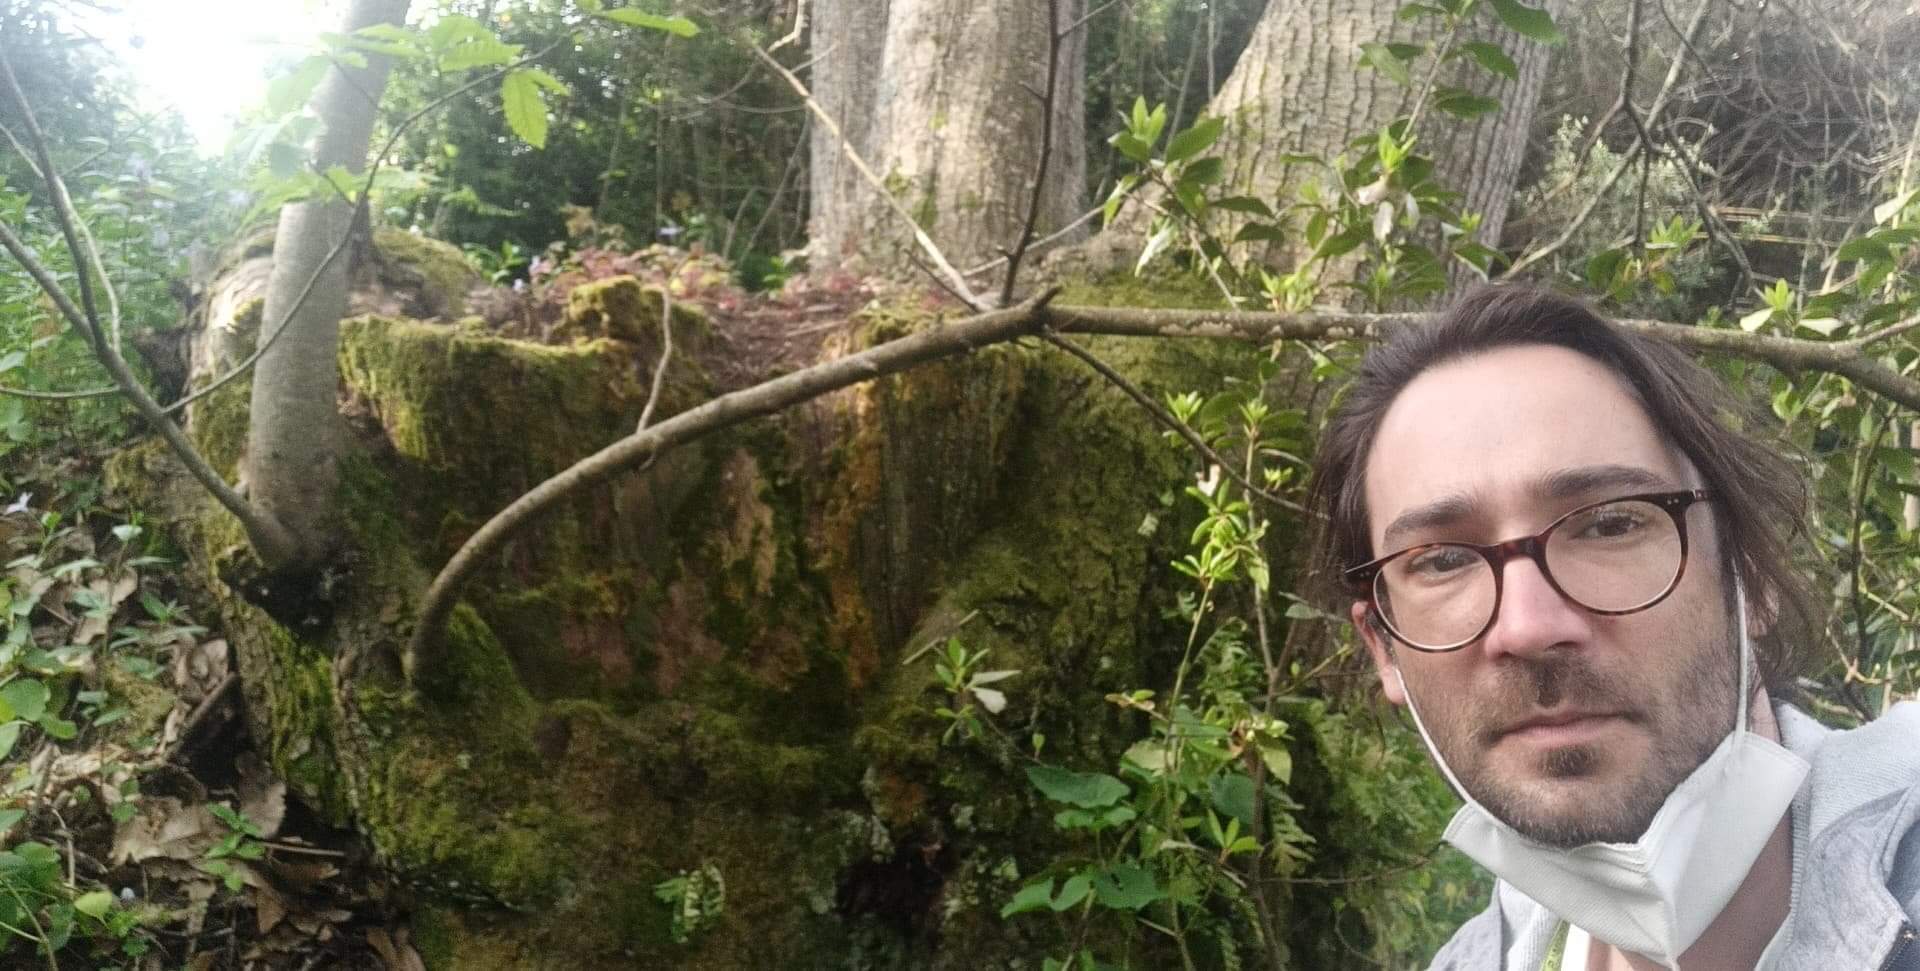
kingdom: Plantae
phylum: Tracheophyta
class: Magnoliopsida
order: Fagales
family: Fagaceae
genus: Castanea
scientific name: Castanea sativa
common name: Sweet chestnut
